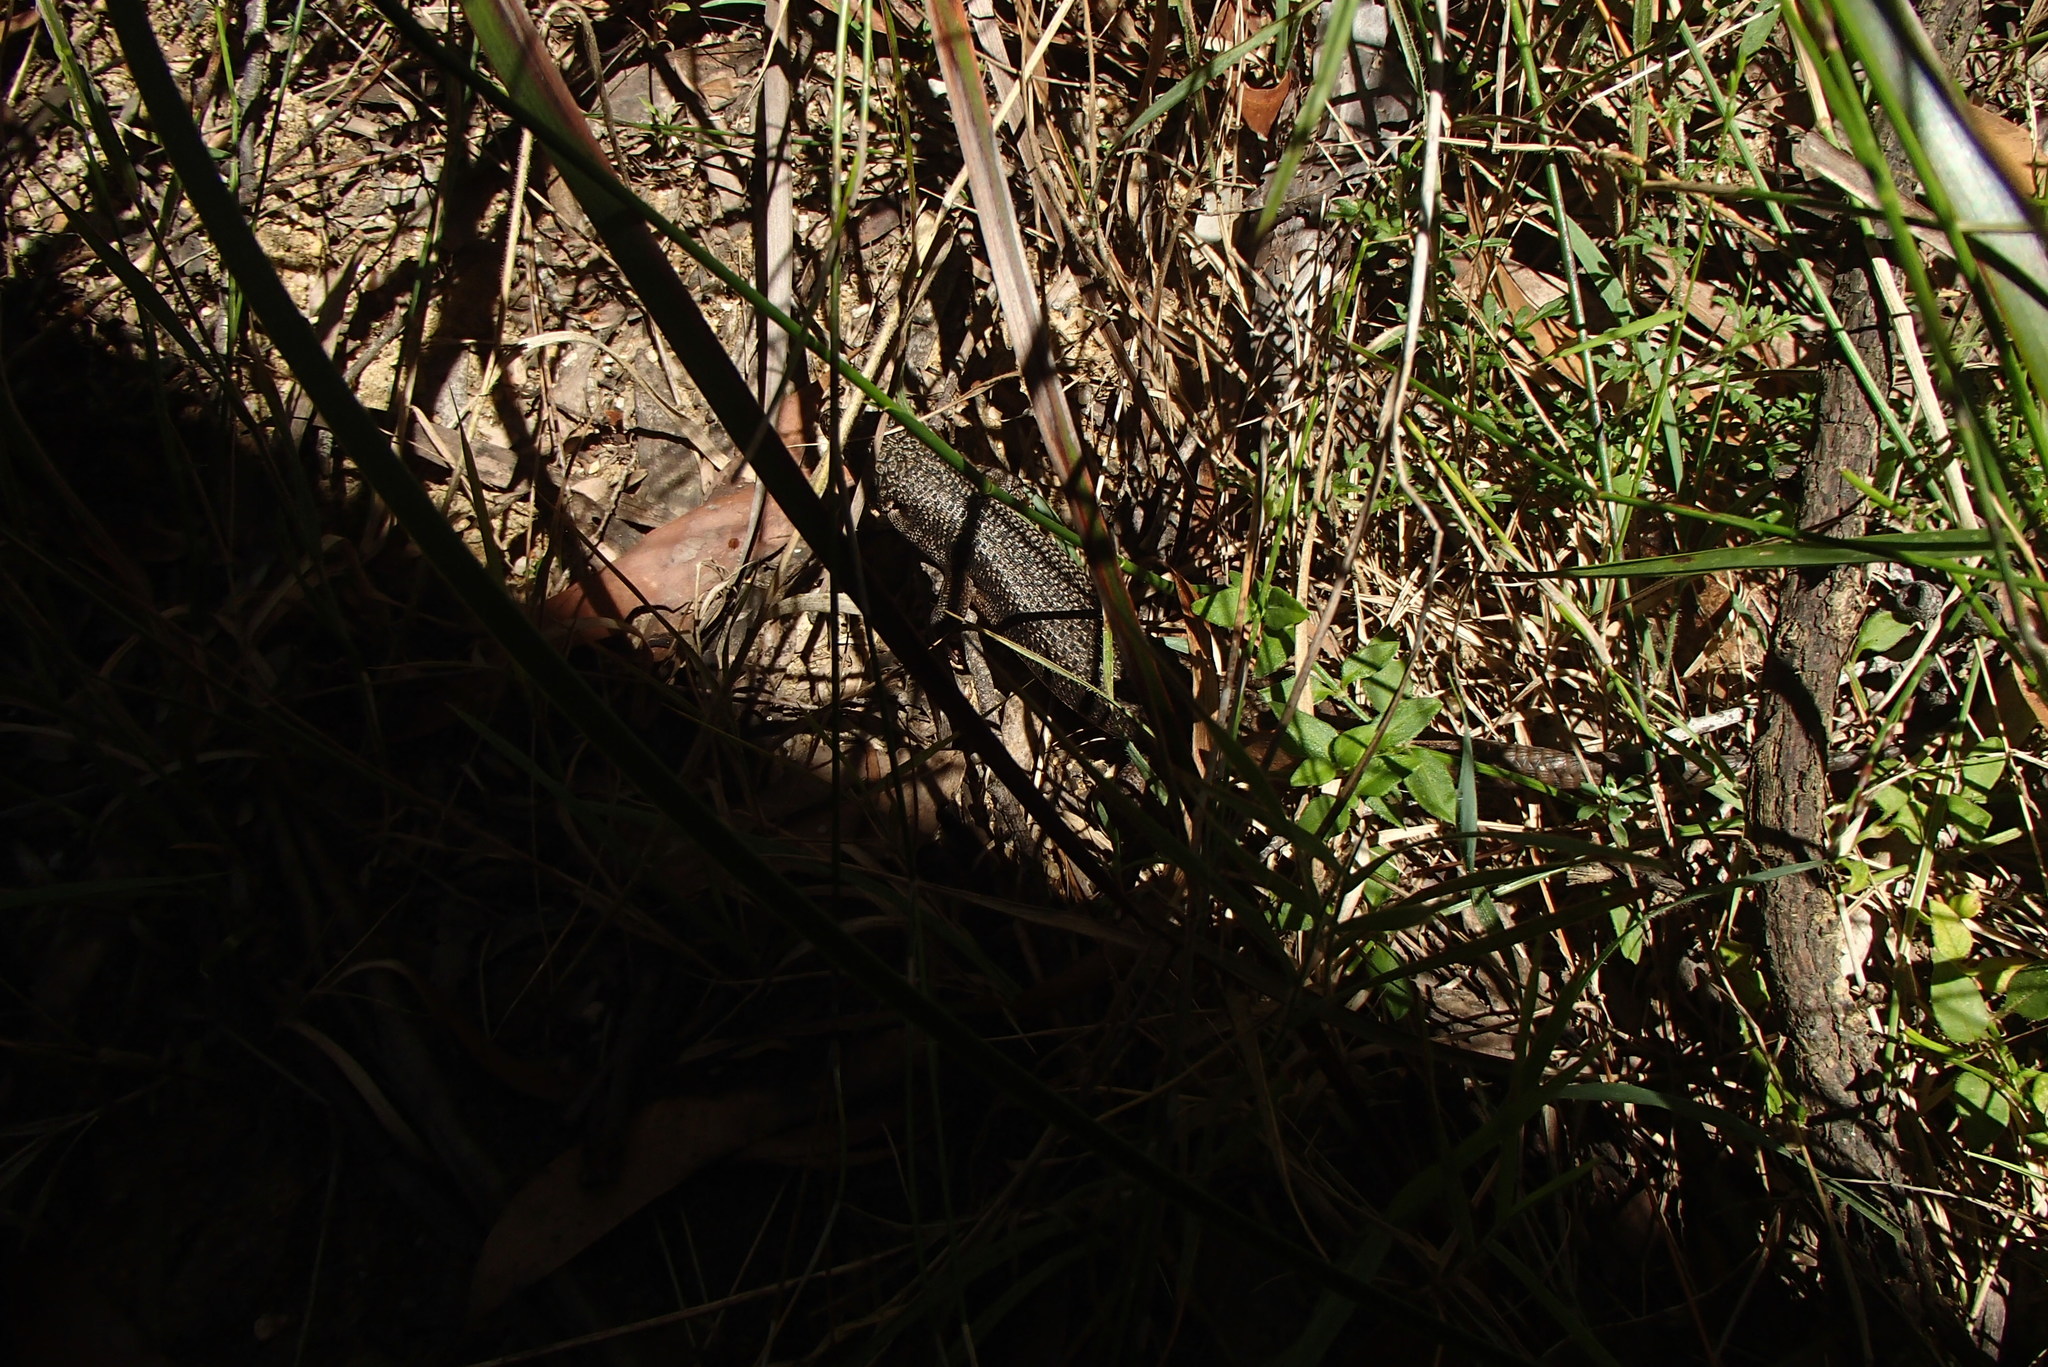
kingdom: Animalia
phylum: Chordata
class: Squamata
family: Scincidae
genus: Egernia
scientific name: Egernia saxatilis
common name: Black crevice-skink
